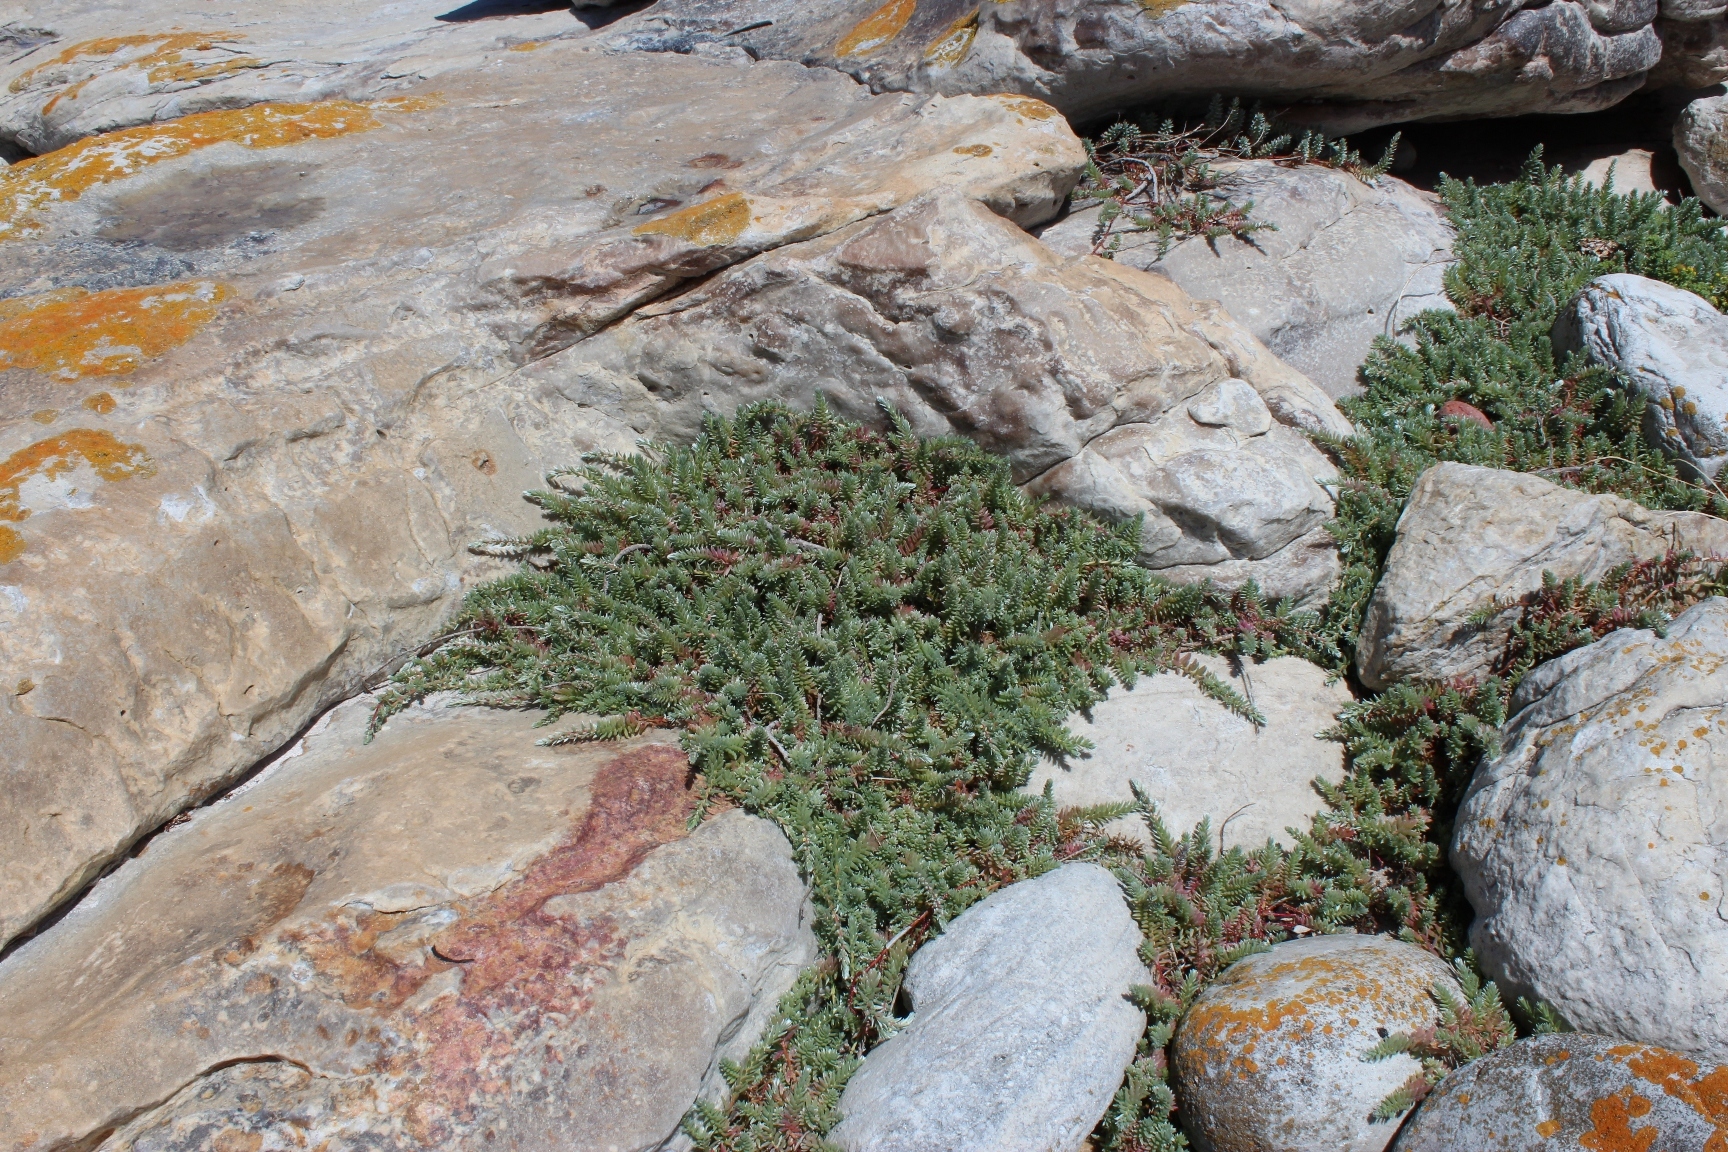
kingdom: Plantae
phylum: Tracheophyta
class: Magnoliopsida
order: Caryophyllales
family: Amaranthaceae
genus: Chenolea
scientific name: Chenolea diffusa
